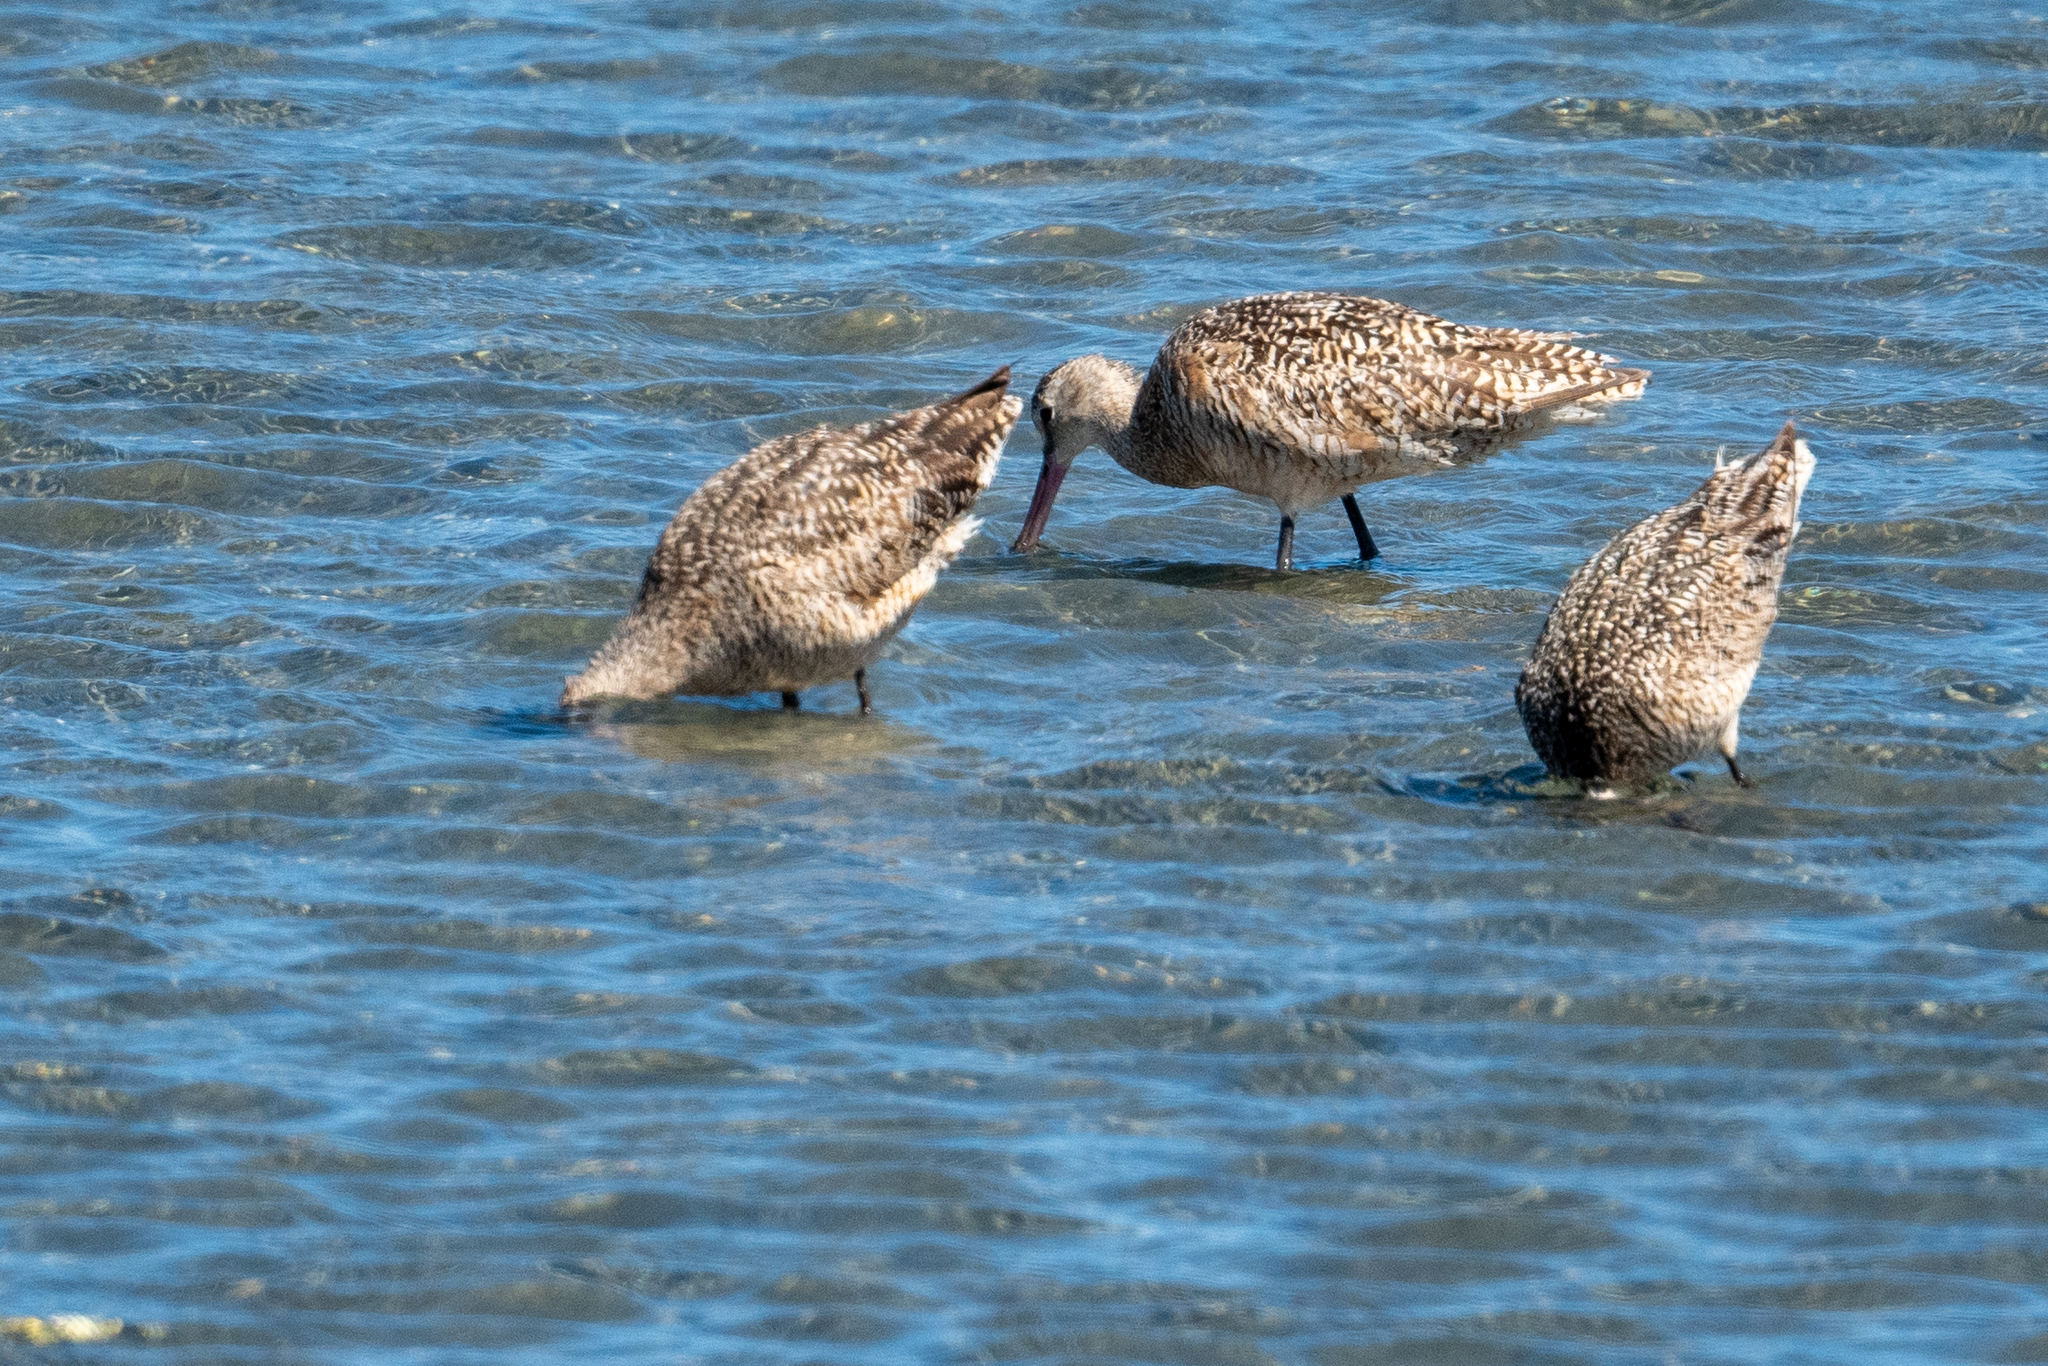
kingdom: Animalia
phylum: Chordata
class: Aves
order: Charadriiformes
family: Scolopacidae
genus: Limosa
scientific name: Limosa fedoa
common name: Marbled godwit
